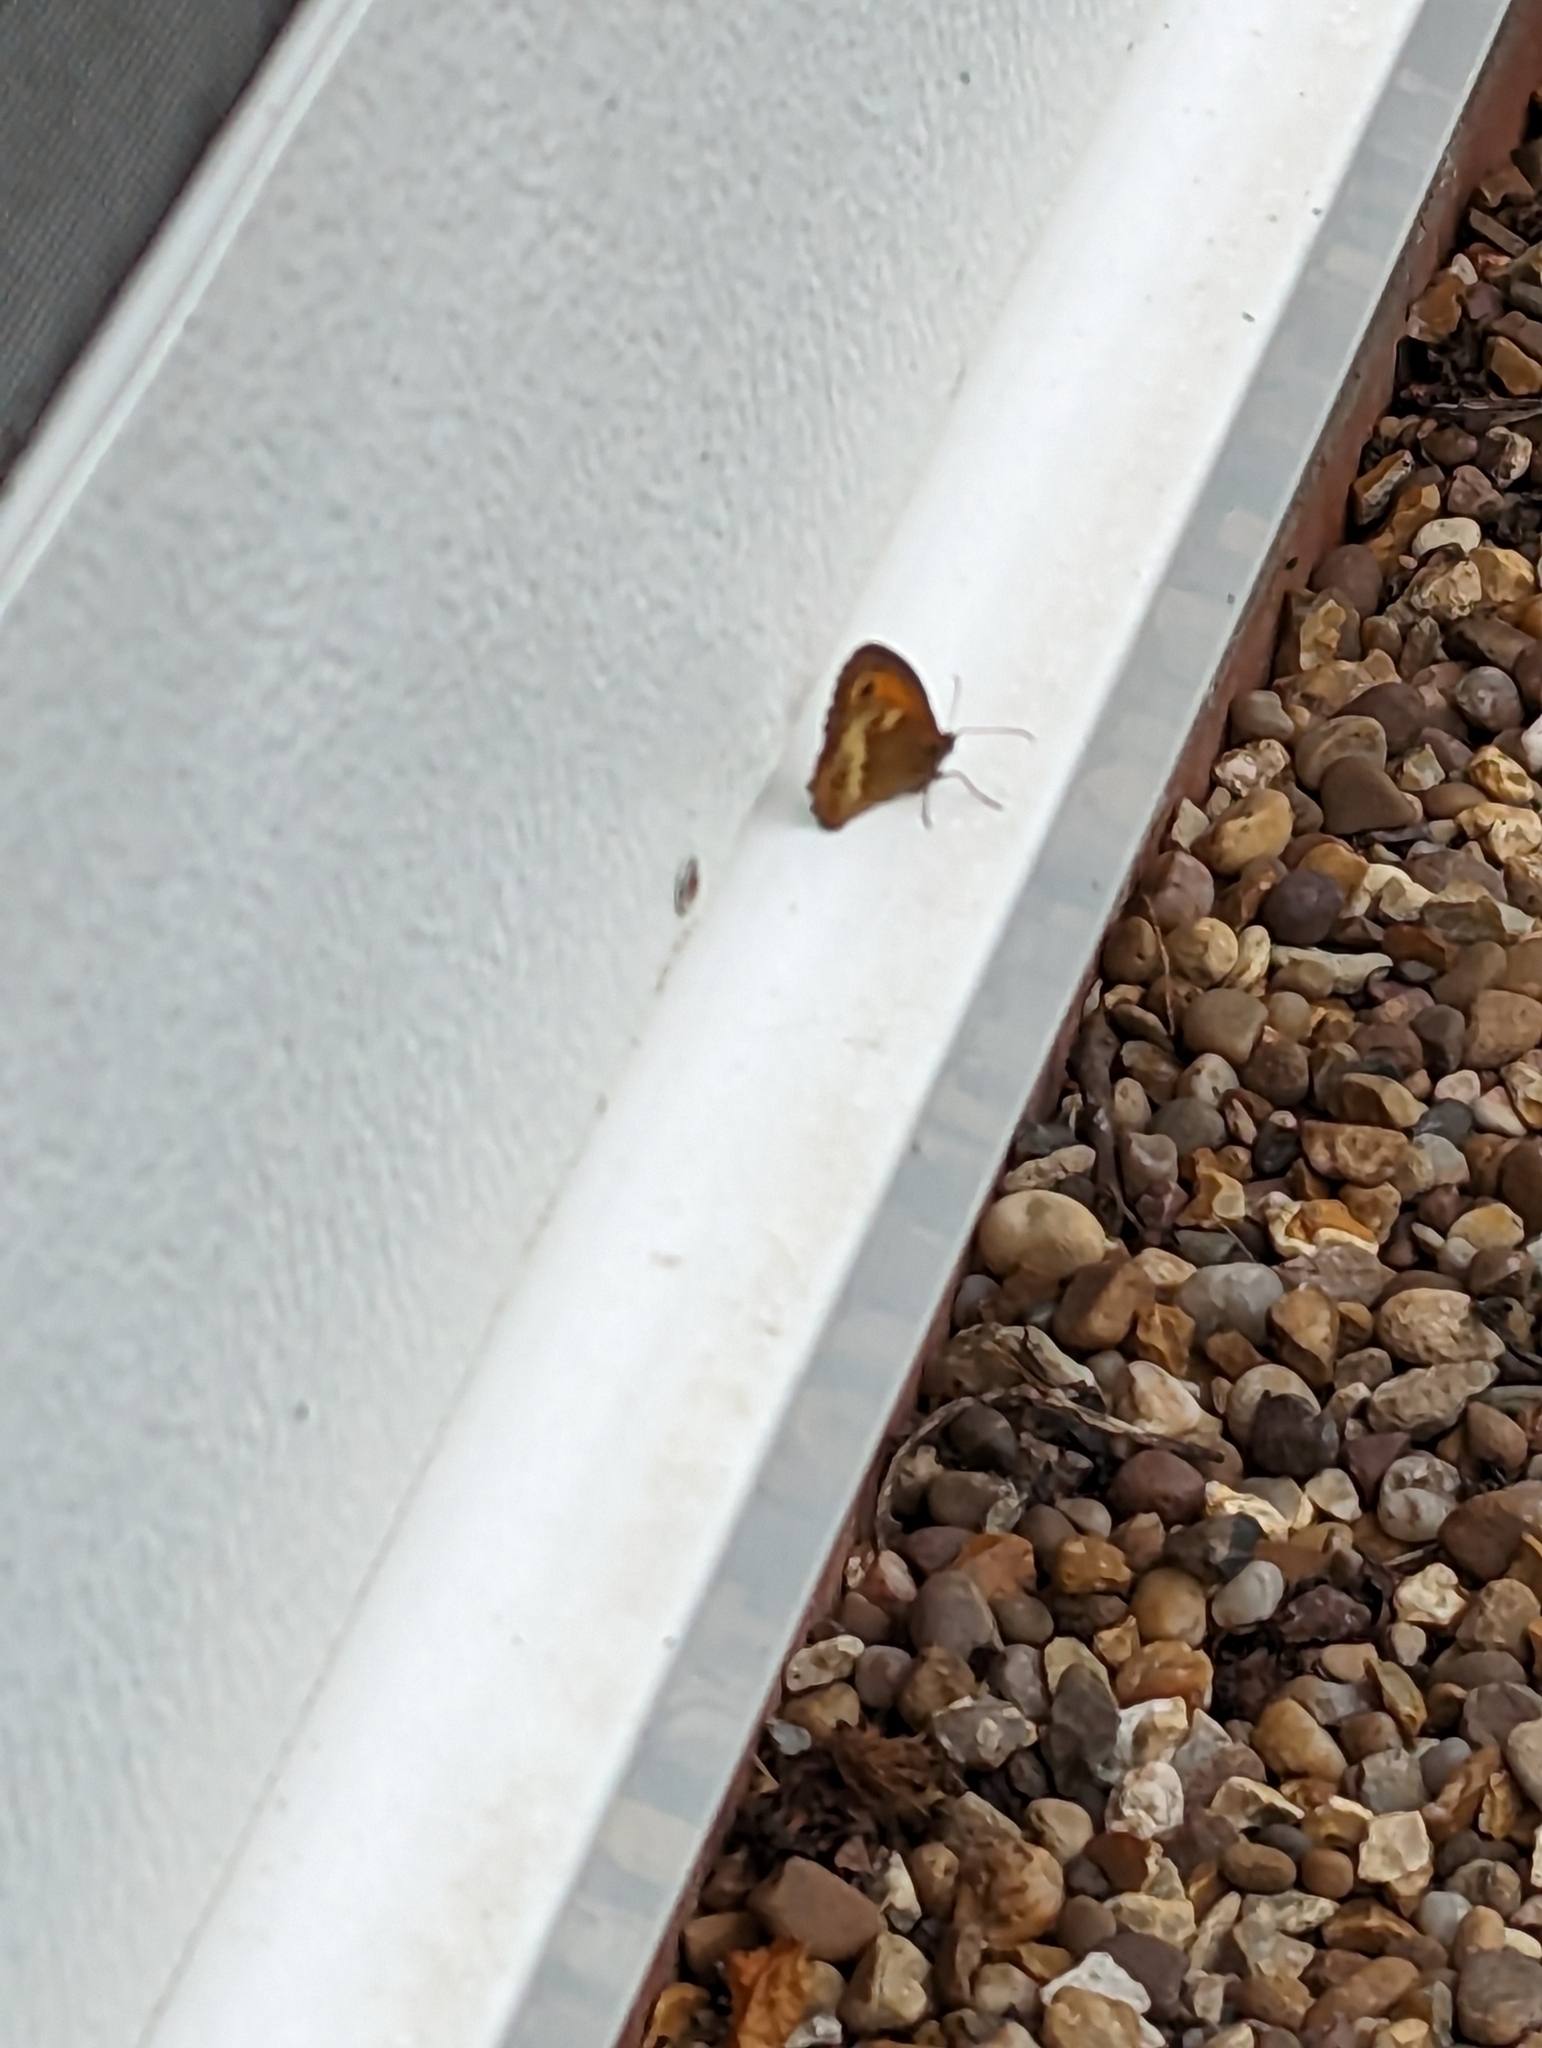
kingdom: Animalia
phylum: Arthropoda
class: Insecta
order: Lepidoptera
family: Nymphalidae
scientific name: Nymphalidae
